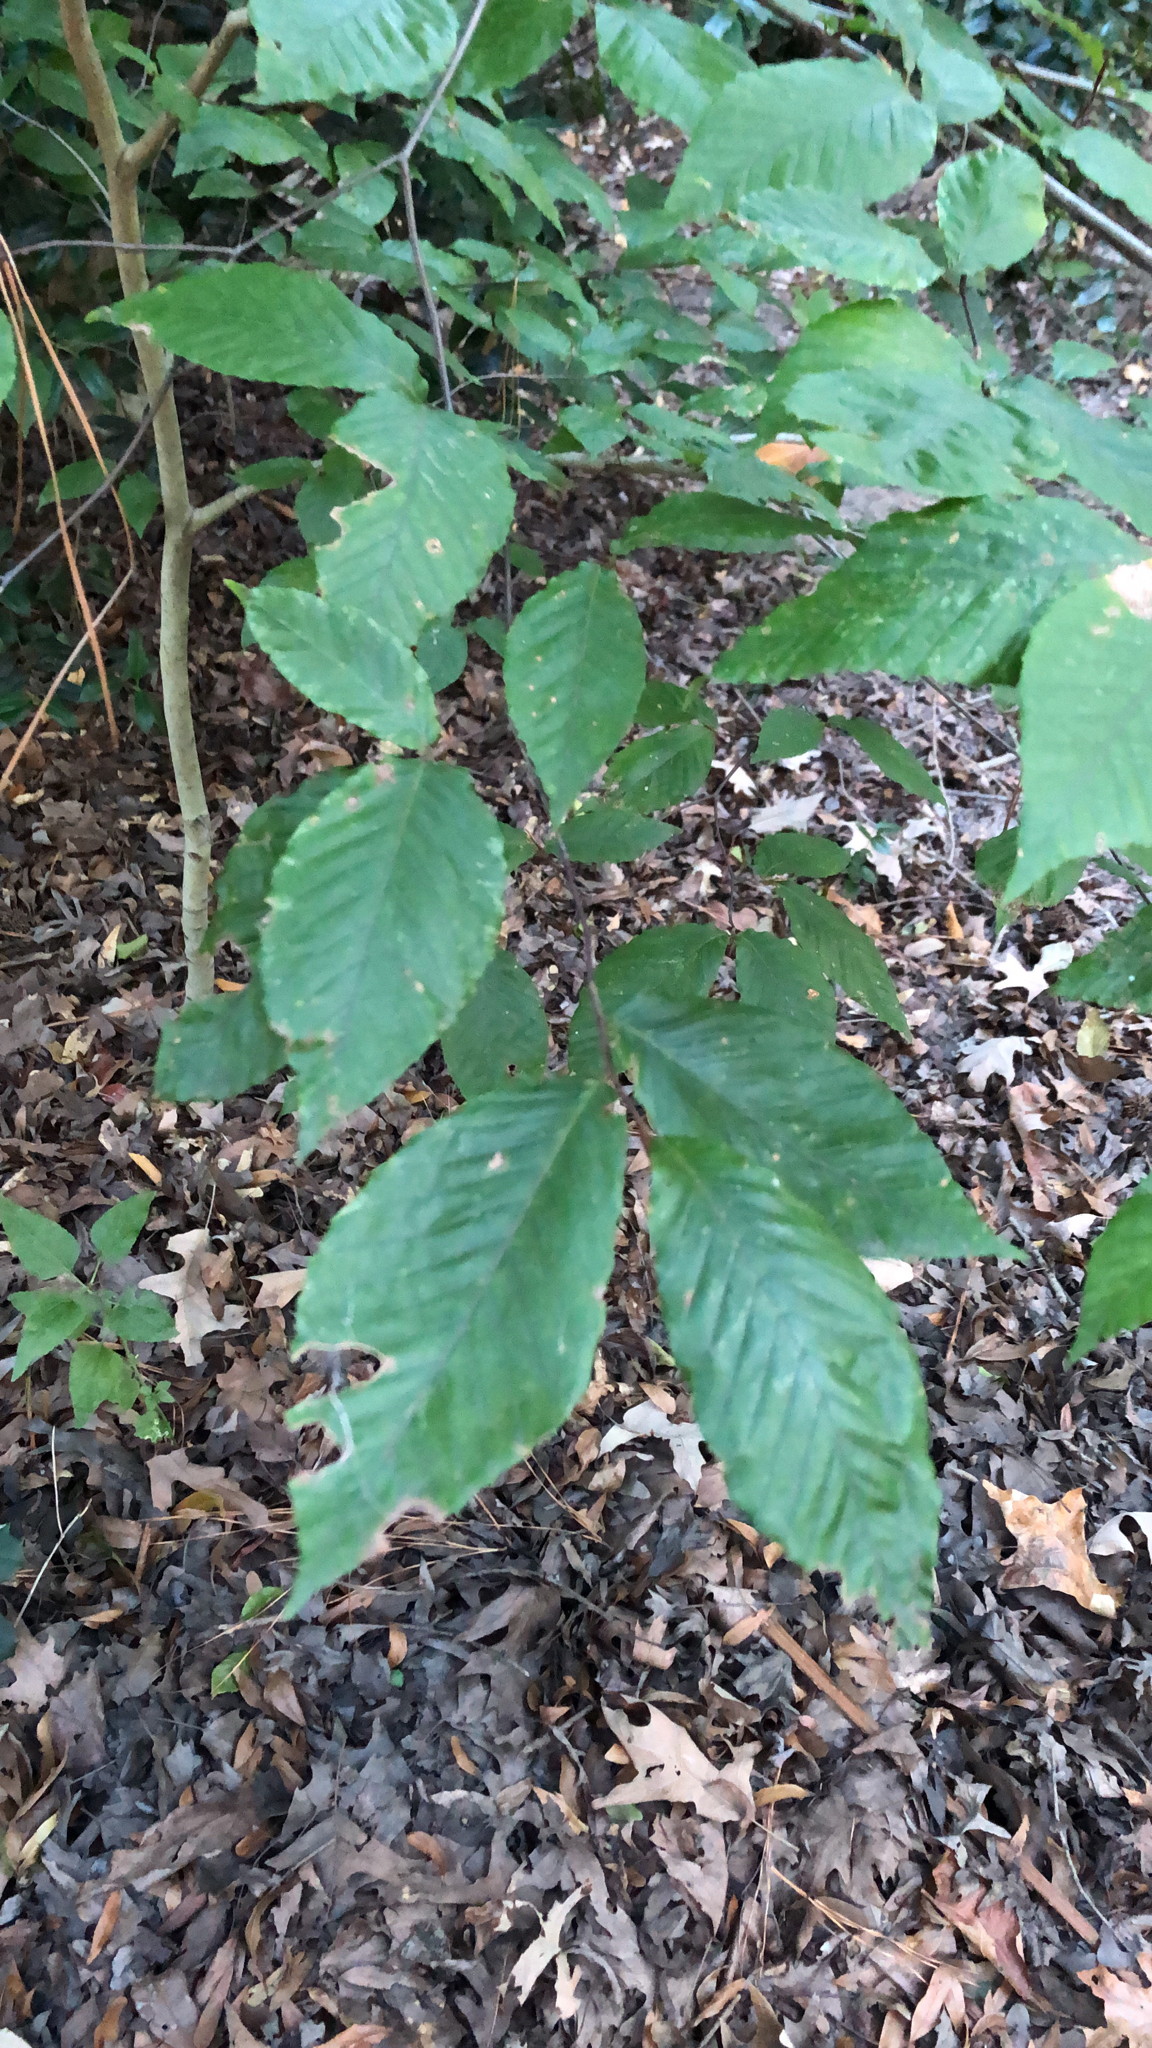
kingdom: Plantae
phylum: Tracheophyta
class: Magnoliopsida
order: Fagales
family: Fagaceae
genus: Fagus
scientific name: Fagus grandifolia
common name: American beech
